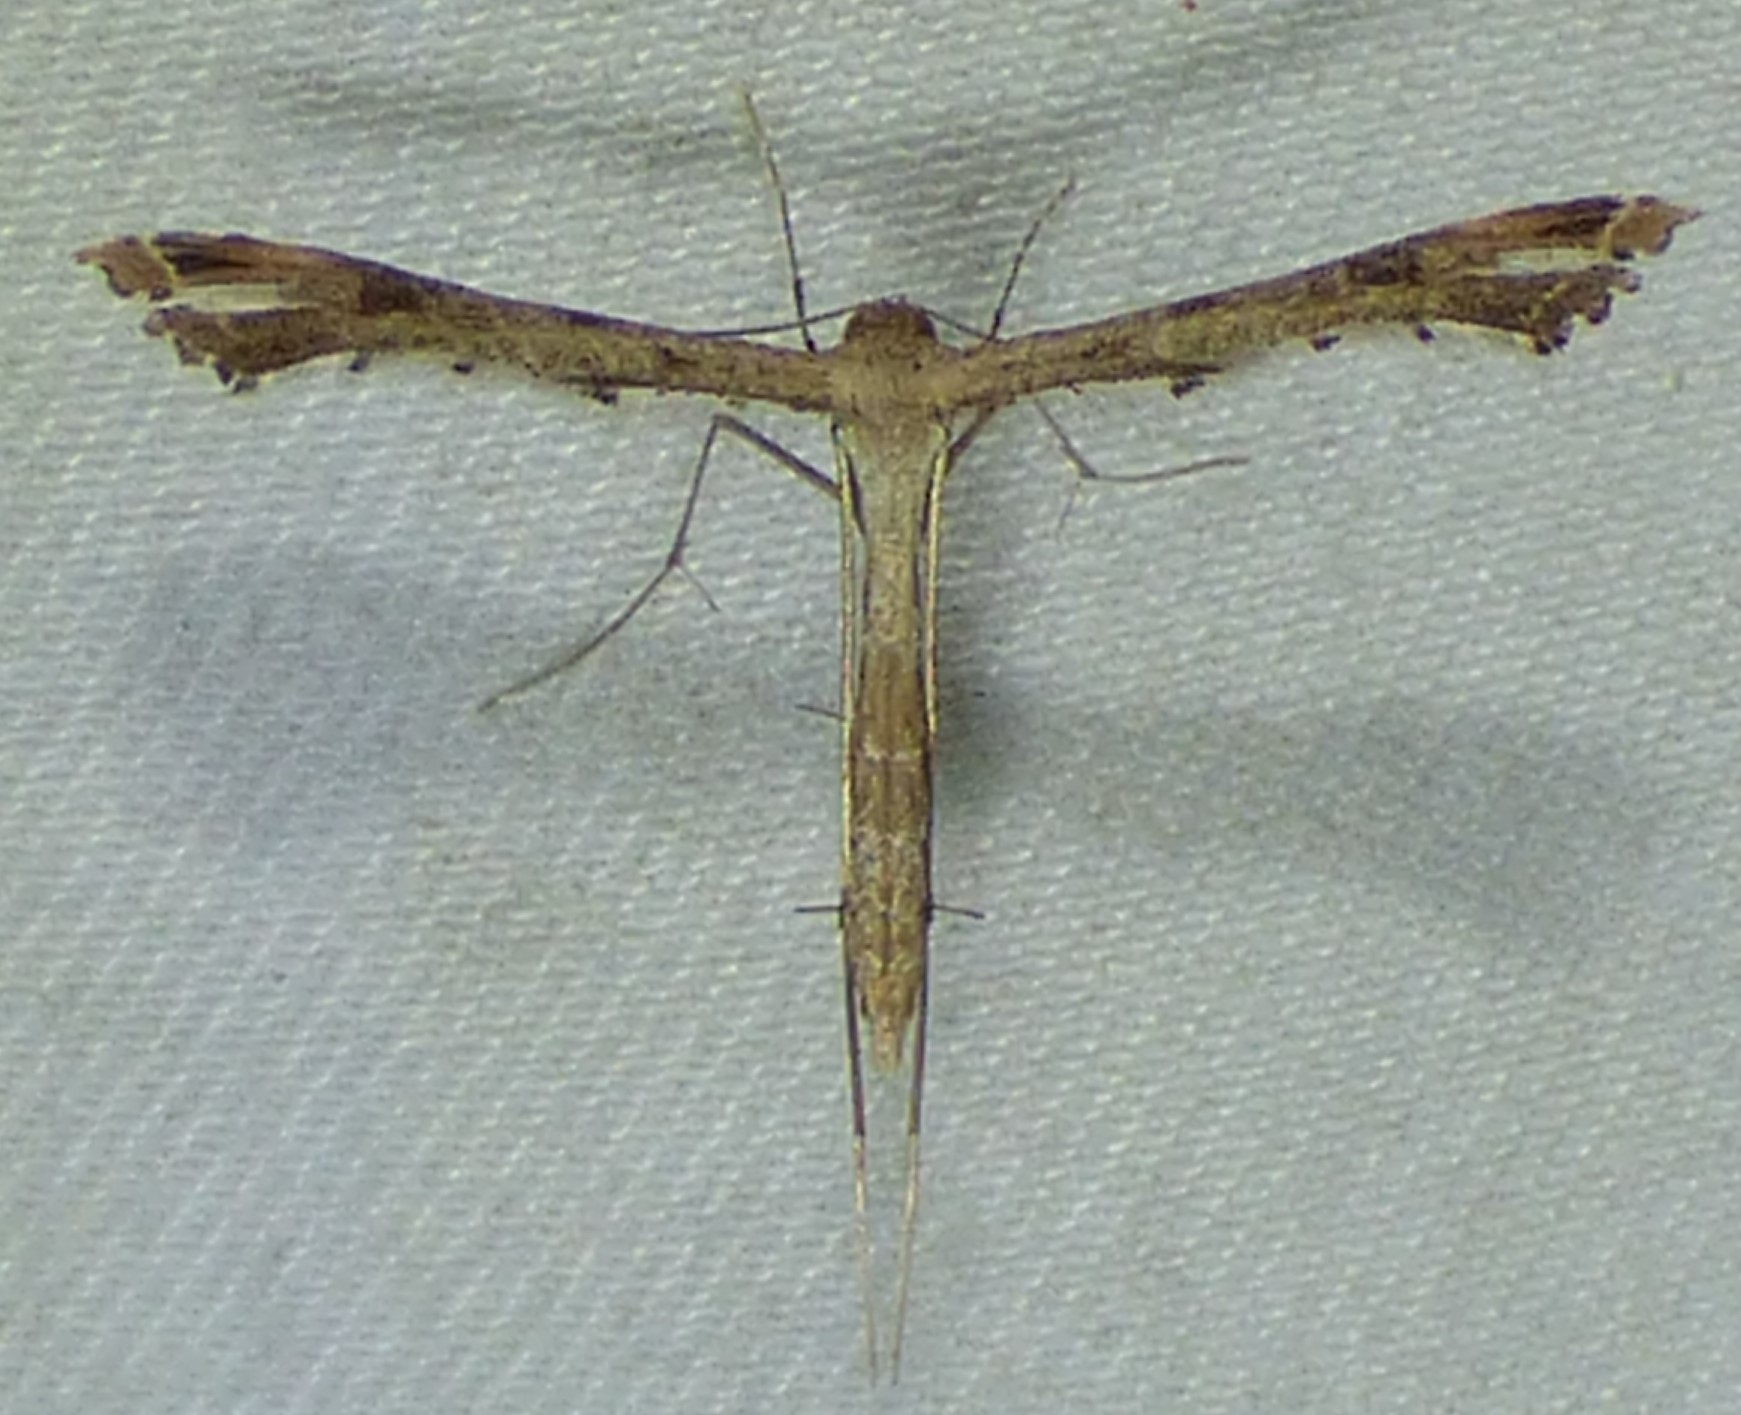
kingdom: Animalia
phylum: Arthropoda
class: Insecta
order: Lepidoptera
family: Pterophoridae
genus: Stenoptilodes
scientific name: Stenoptilodes
